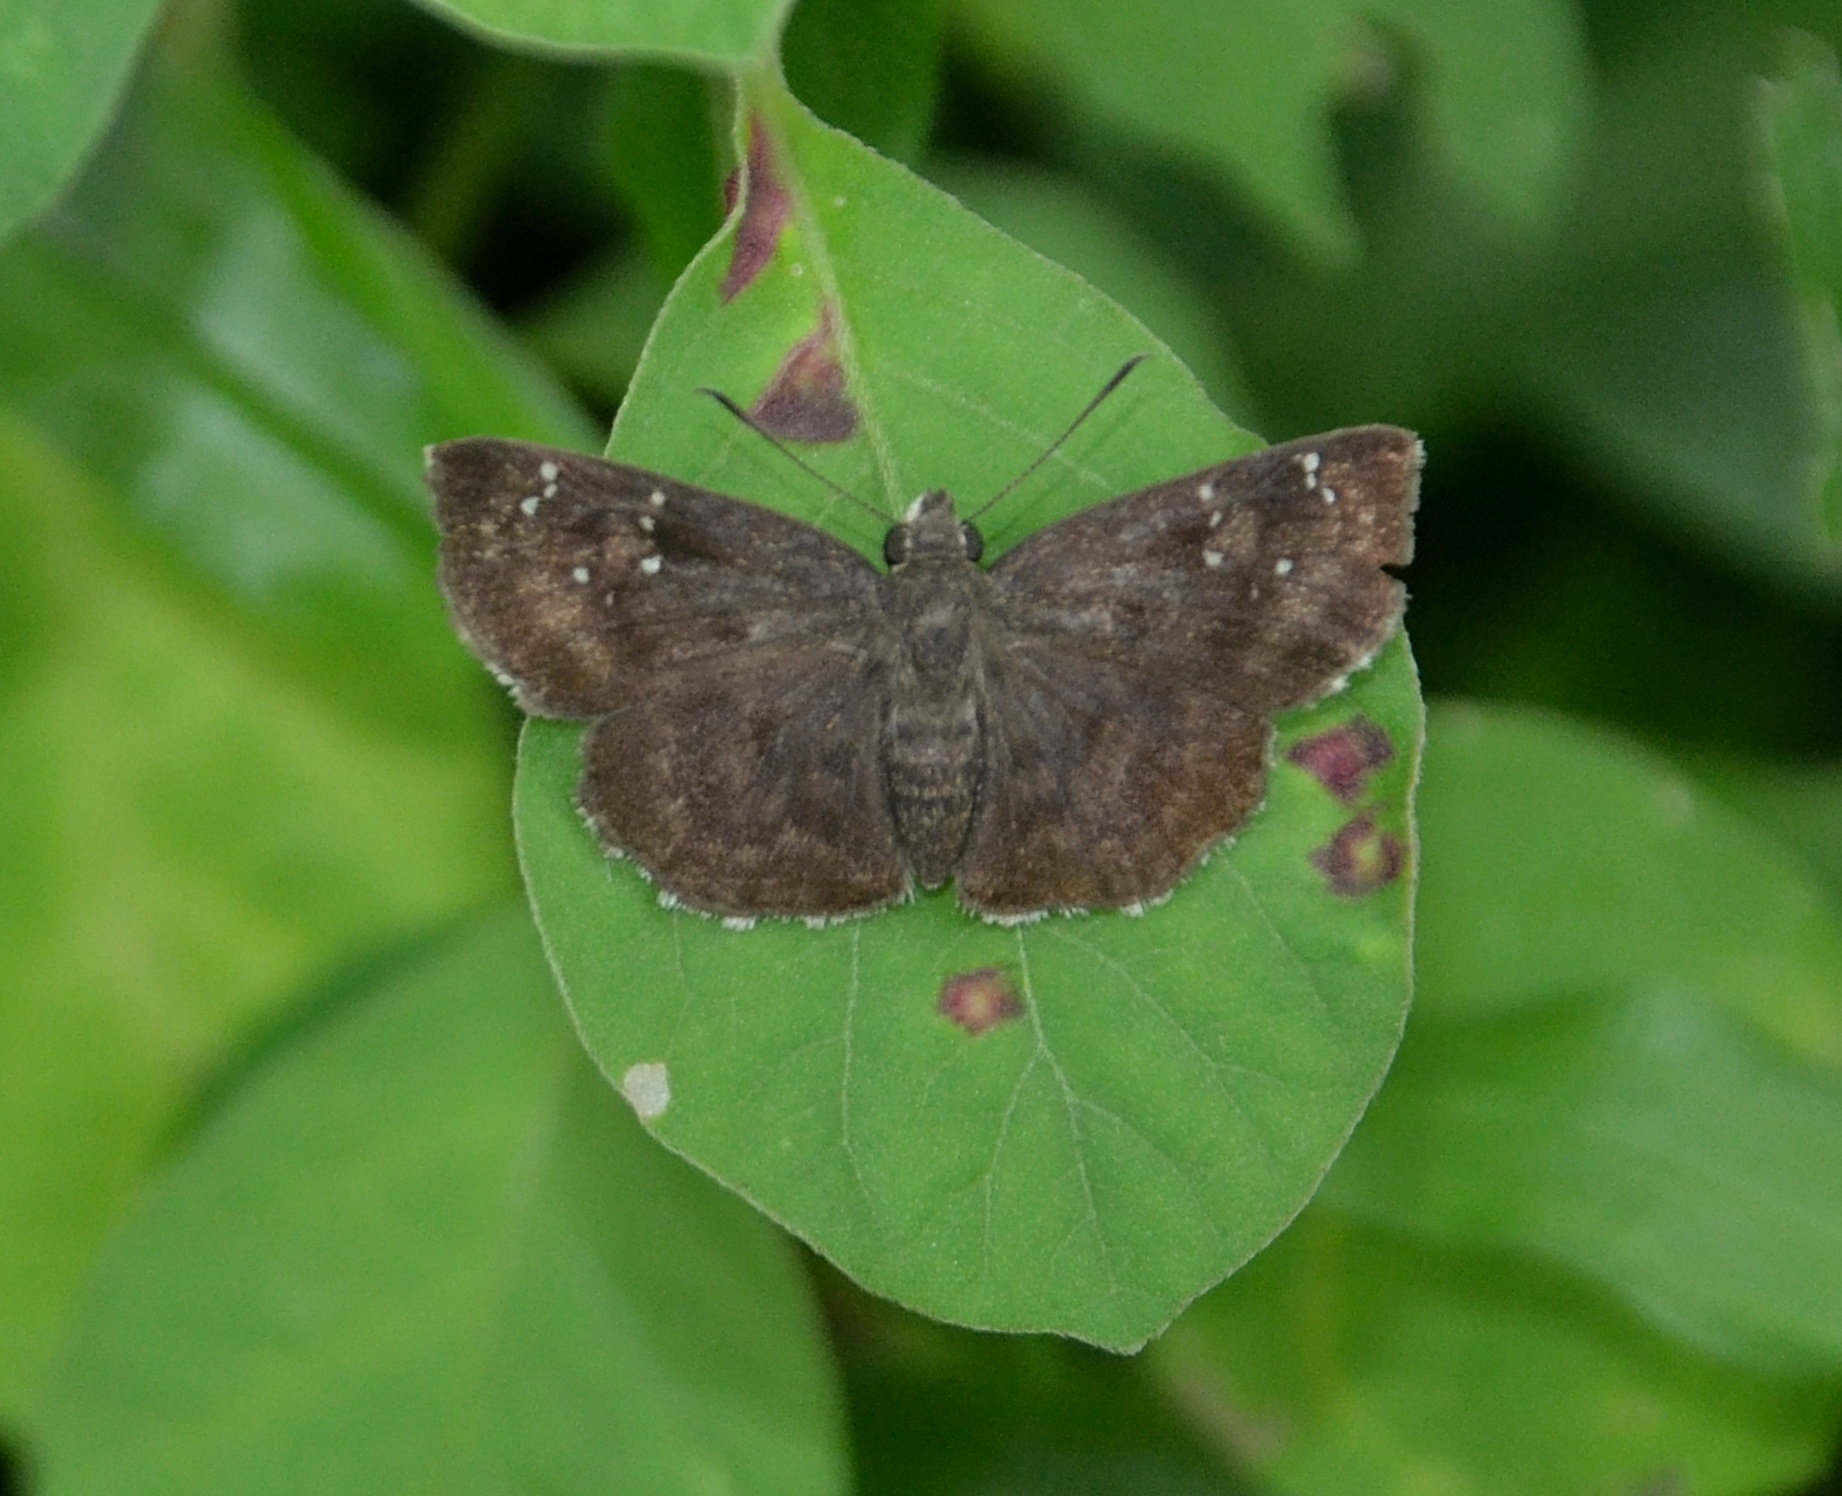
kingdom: Animalia
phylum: Arthropoda
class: Insecta
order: Lepidoptera
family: Hesperiidae
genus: Sarangesa
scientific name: Sarangesa dasahara
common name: Common small flat
